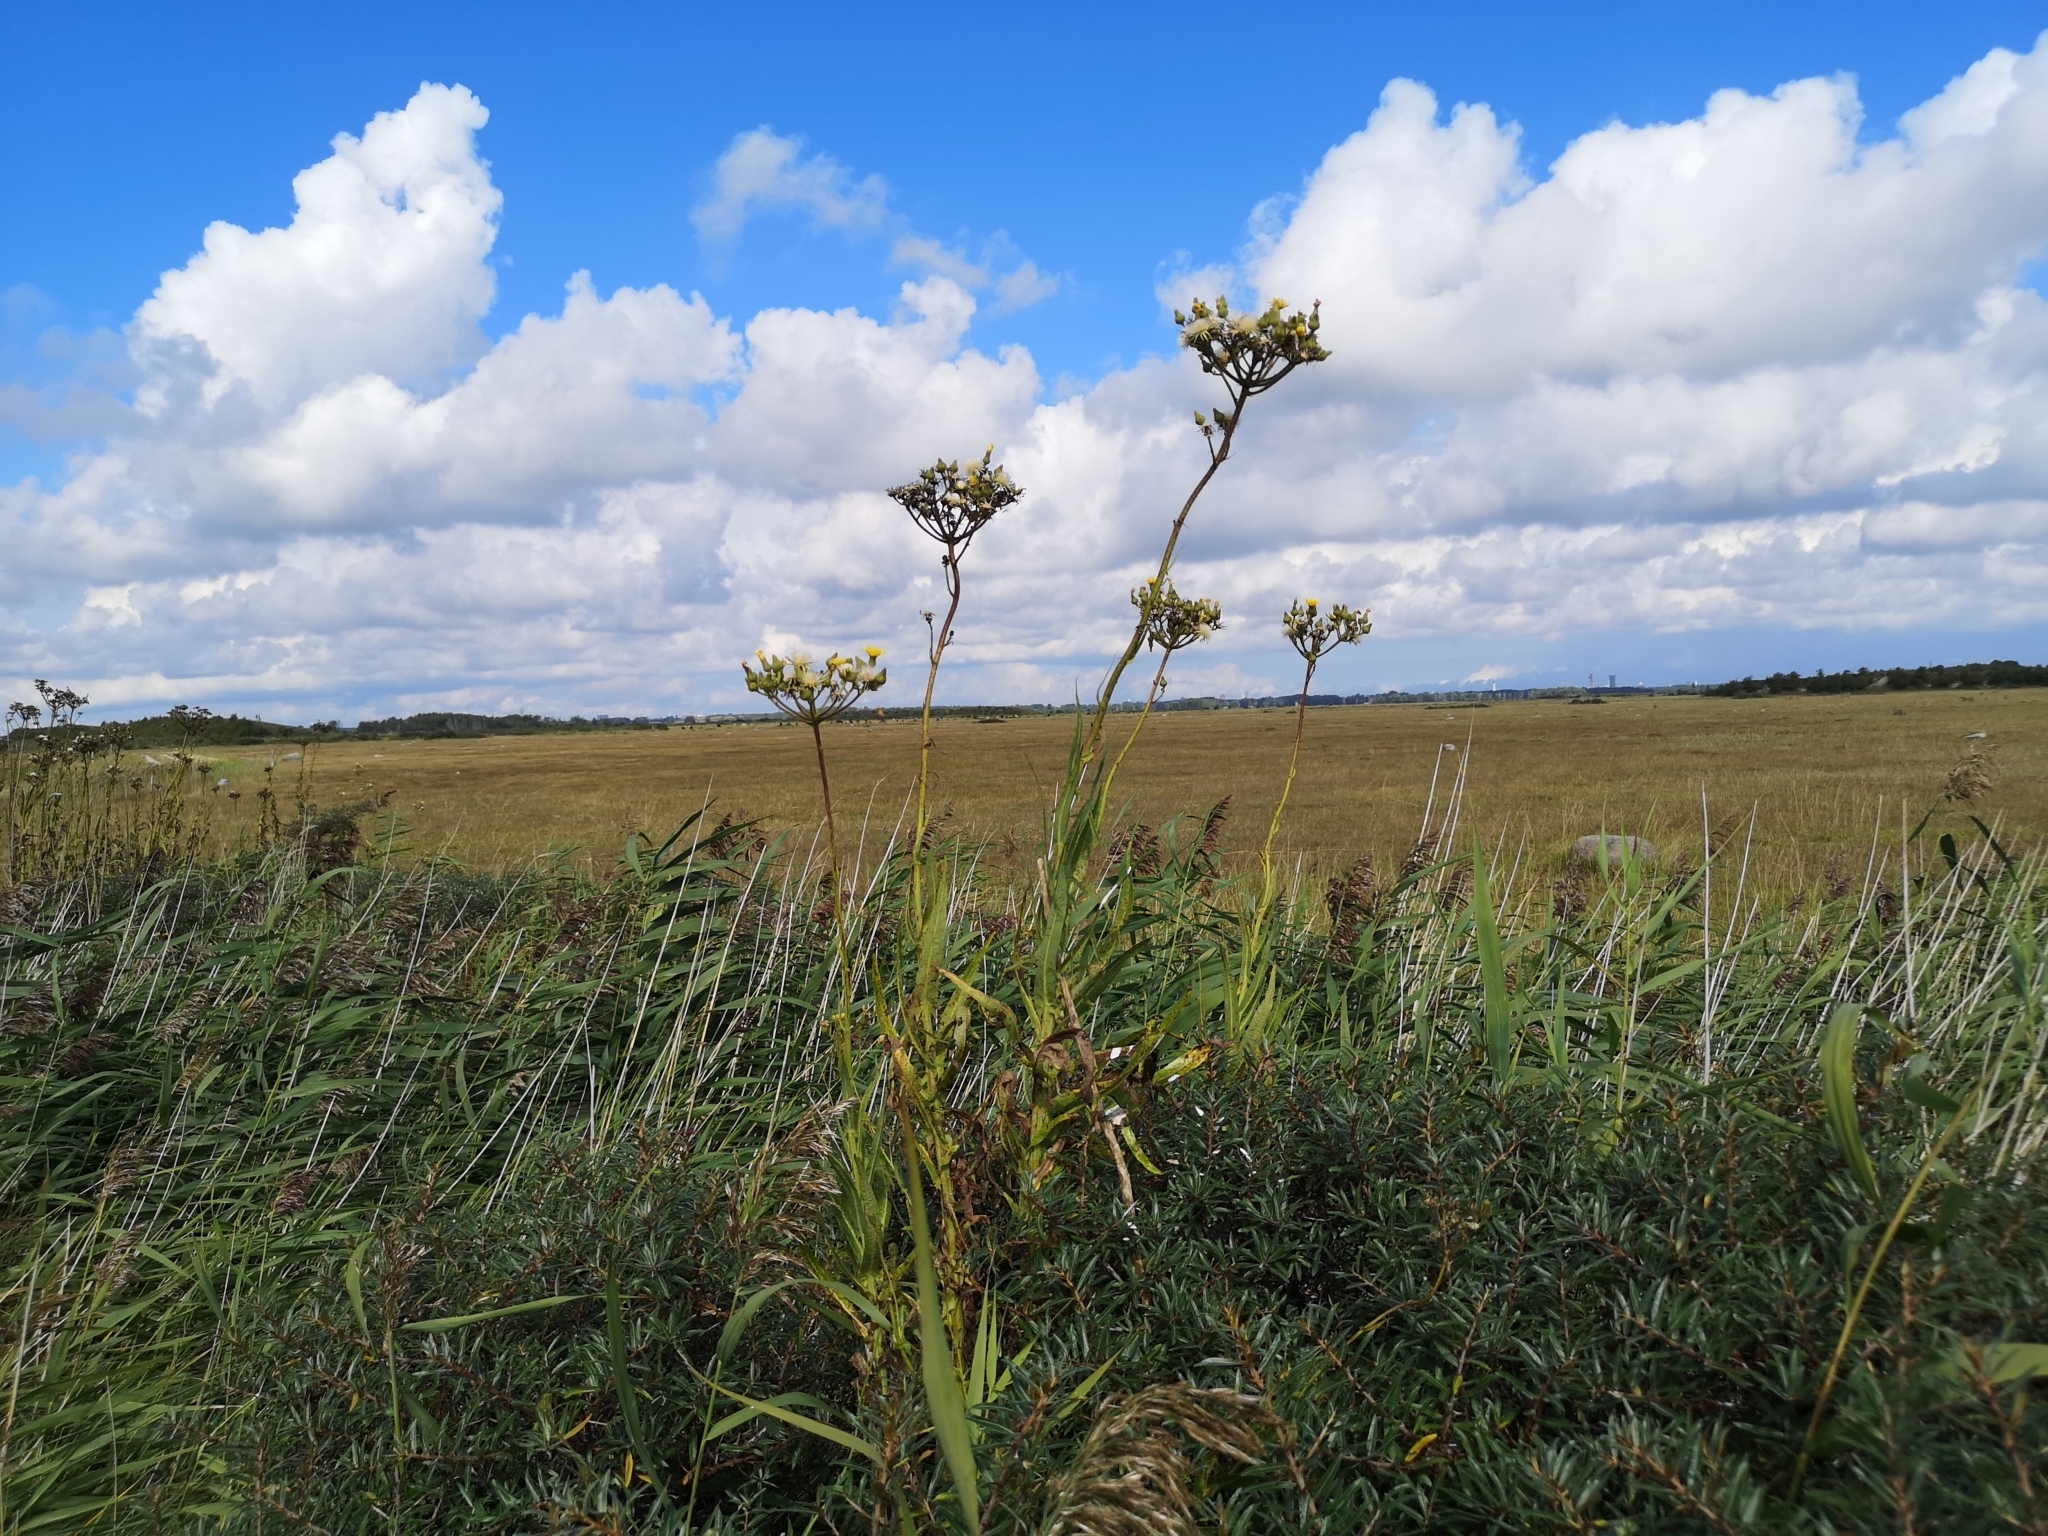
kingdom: Plantae
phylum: Tracheophyta
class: Magnoliopsida
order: Asterales
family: Asteraceae
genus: Sonchus
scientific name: Sonchus palustris
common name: Marsh sow-thistle
